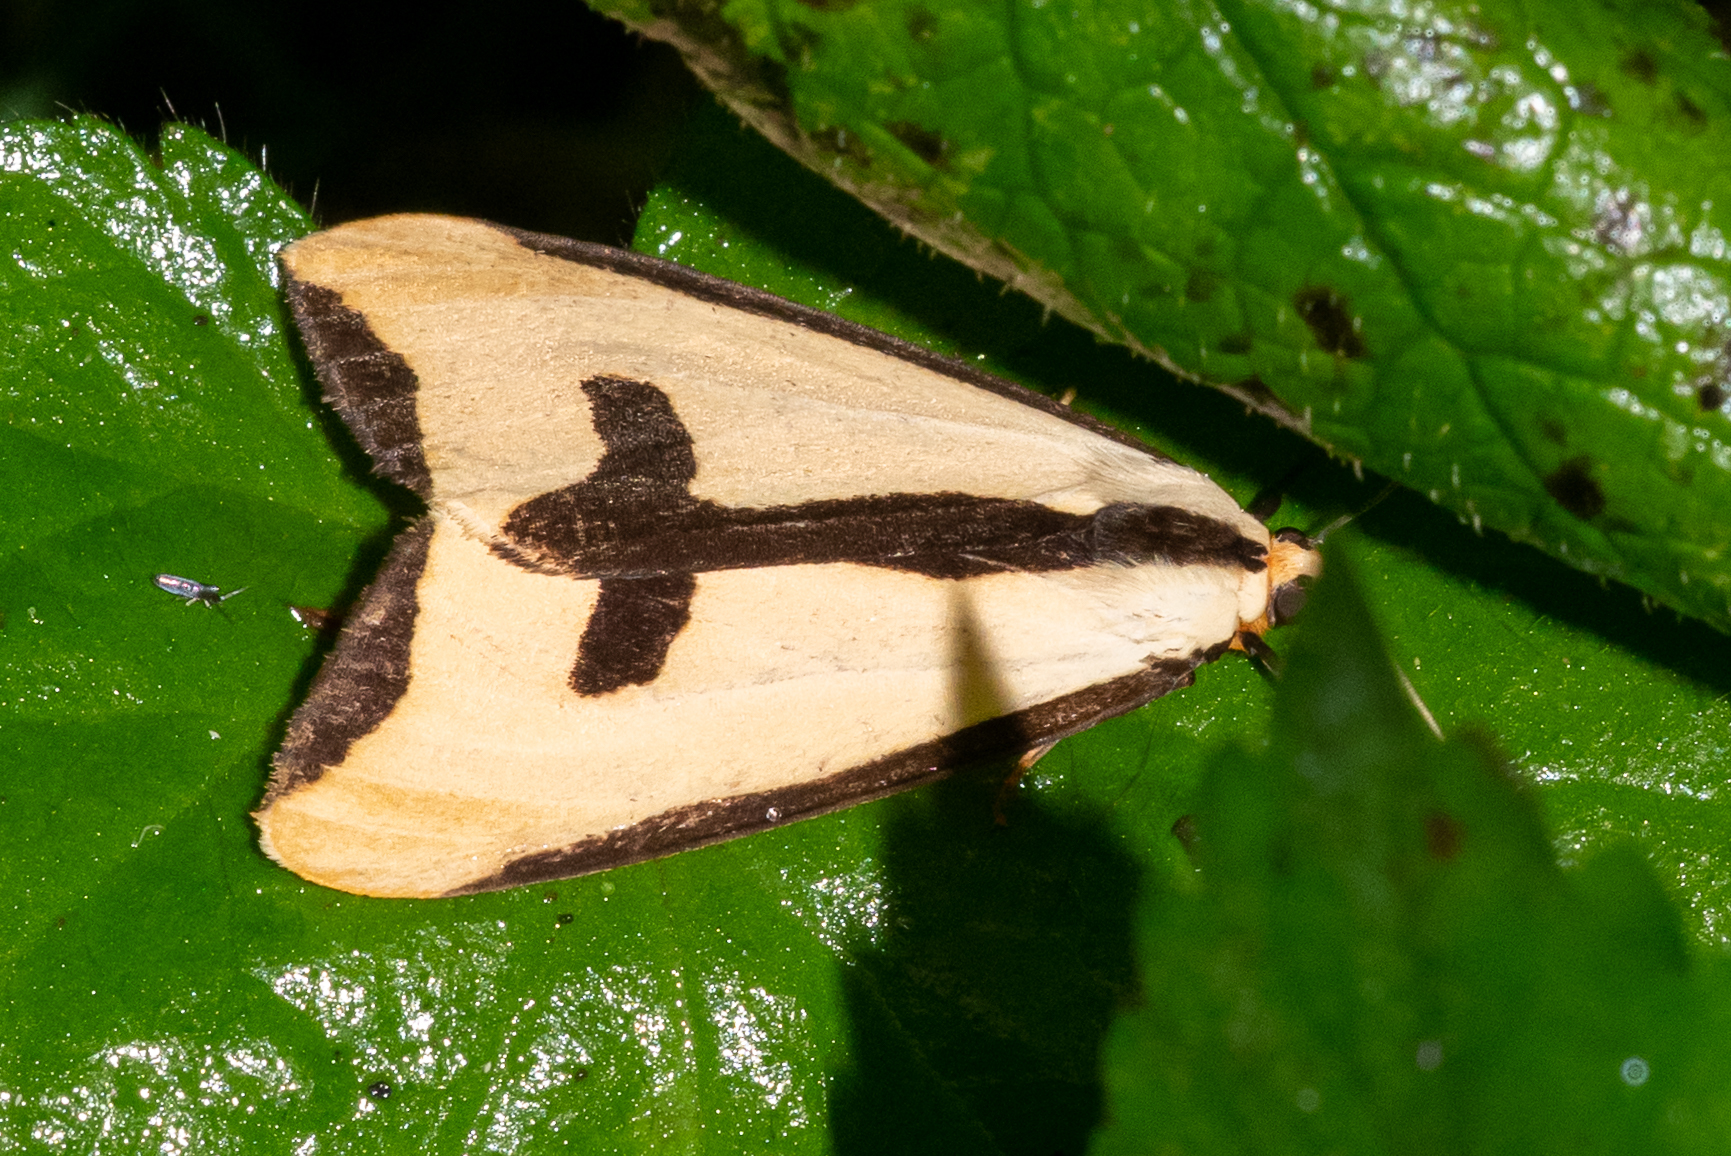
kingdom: Animalia
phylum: Arthropoda
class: Insecta
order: Lepidoptera
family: Erebidae
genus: Haploa
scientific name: Haploa clymene
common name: Clymene moth
